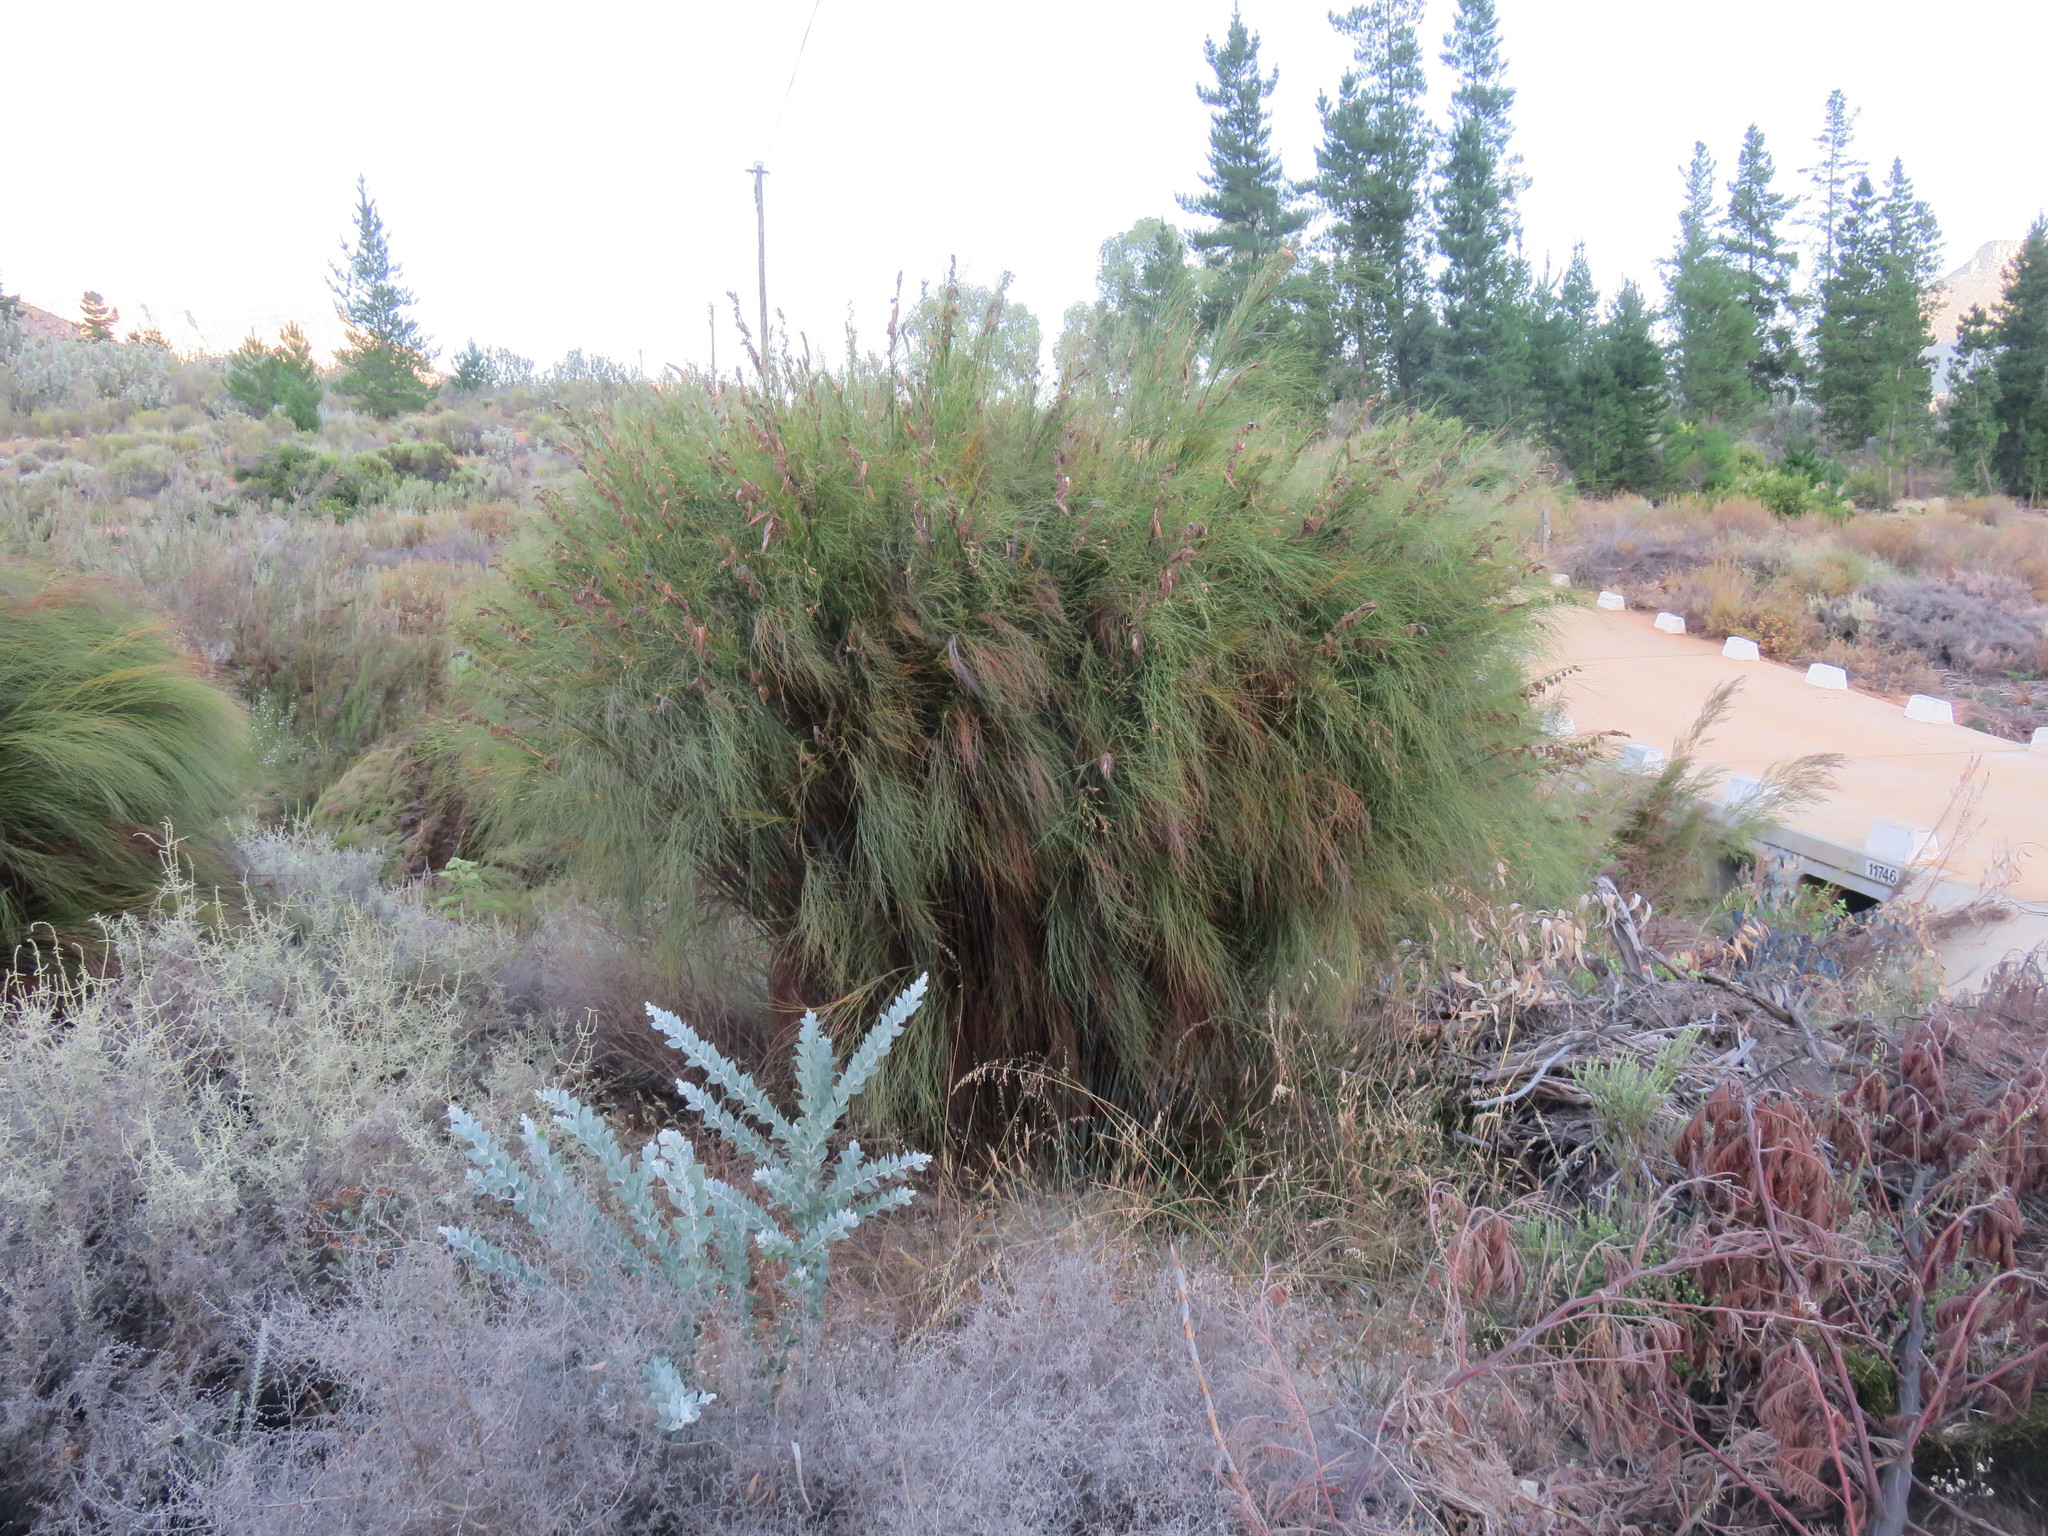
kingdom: Plantae
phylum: Tracheophyta
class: Liliopsida
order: Poales
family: Restionaceae
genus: Cannomois
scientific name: Cannomois robusta
